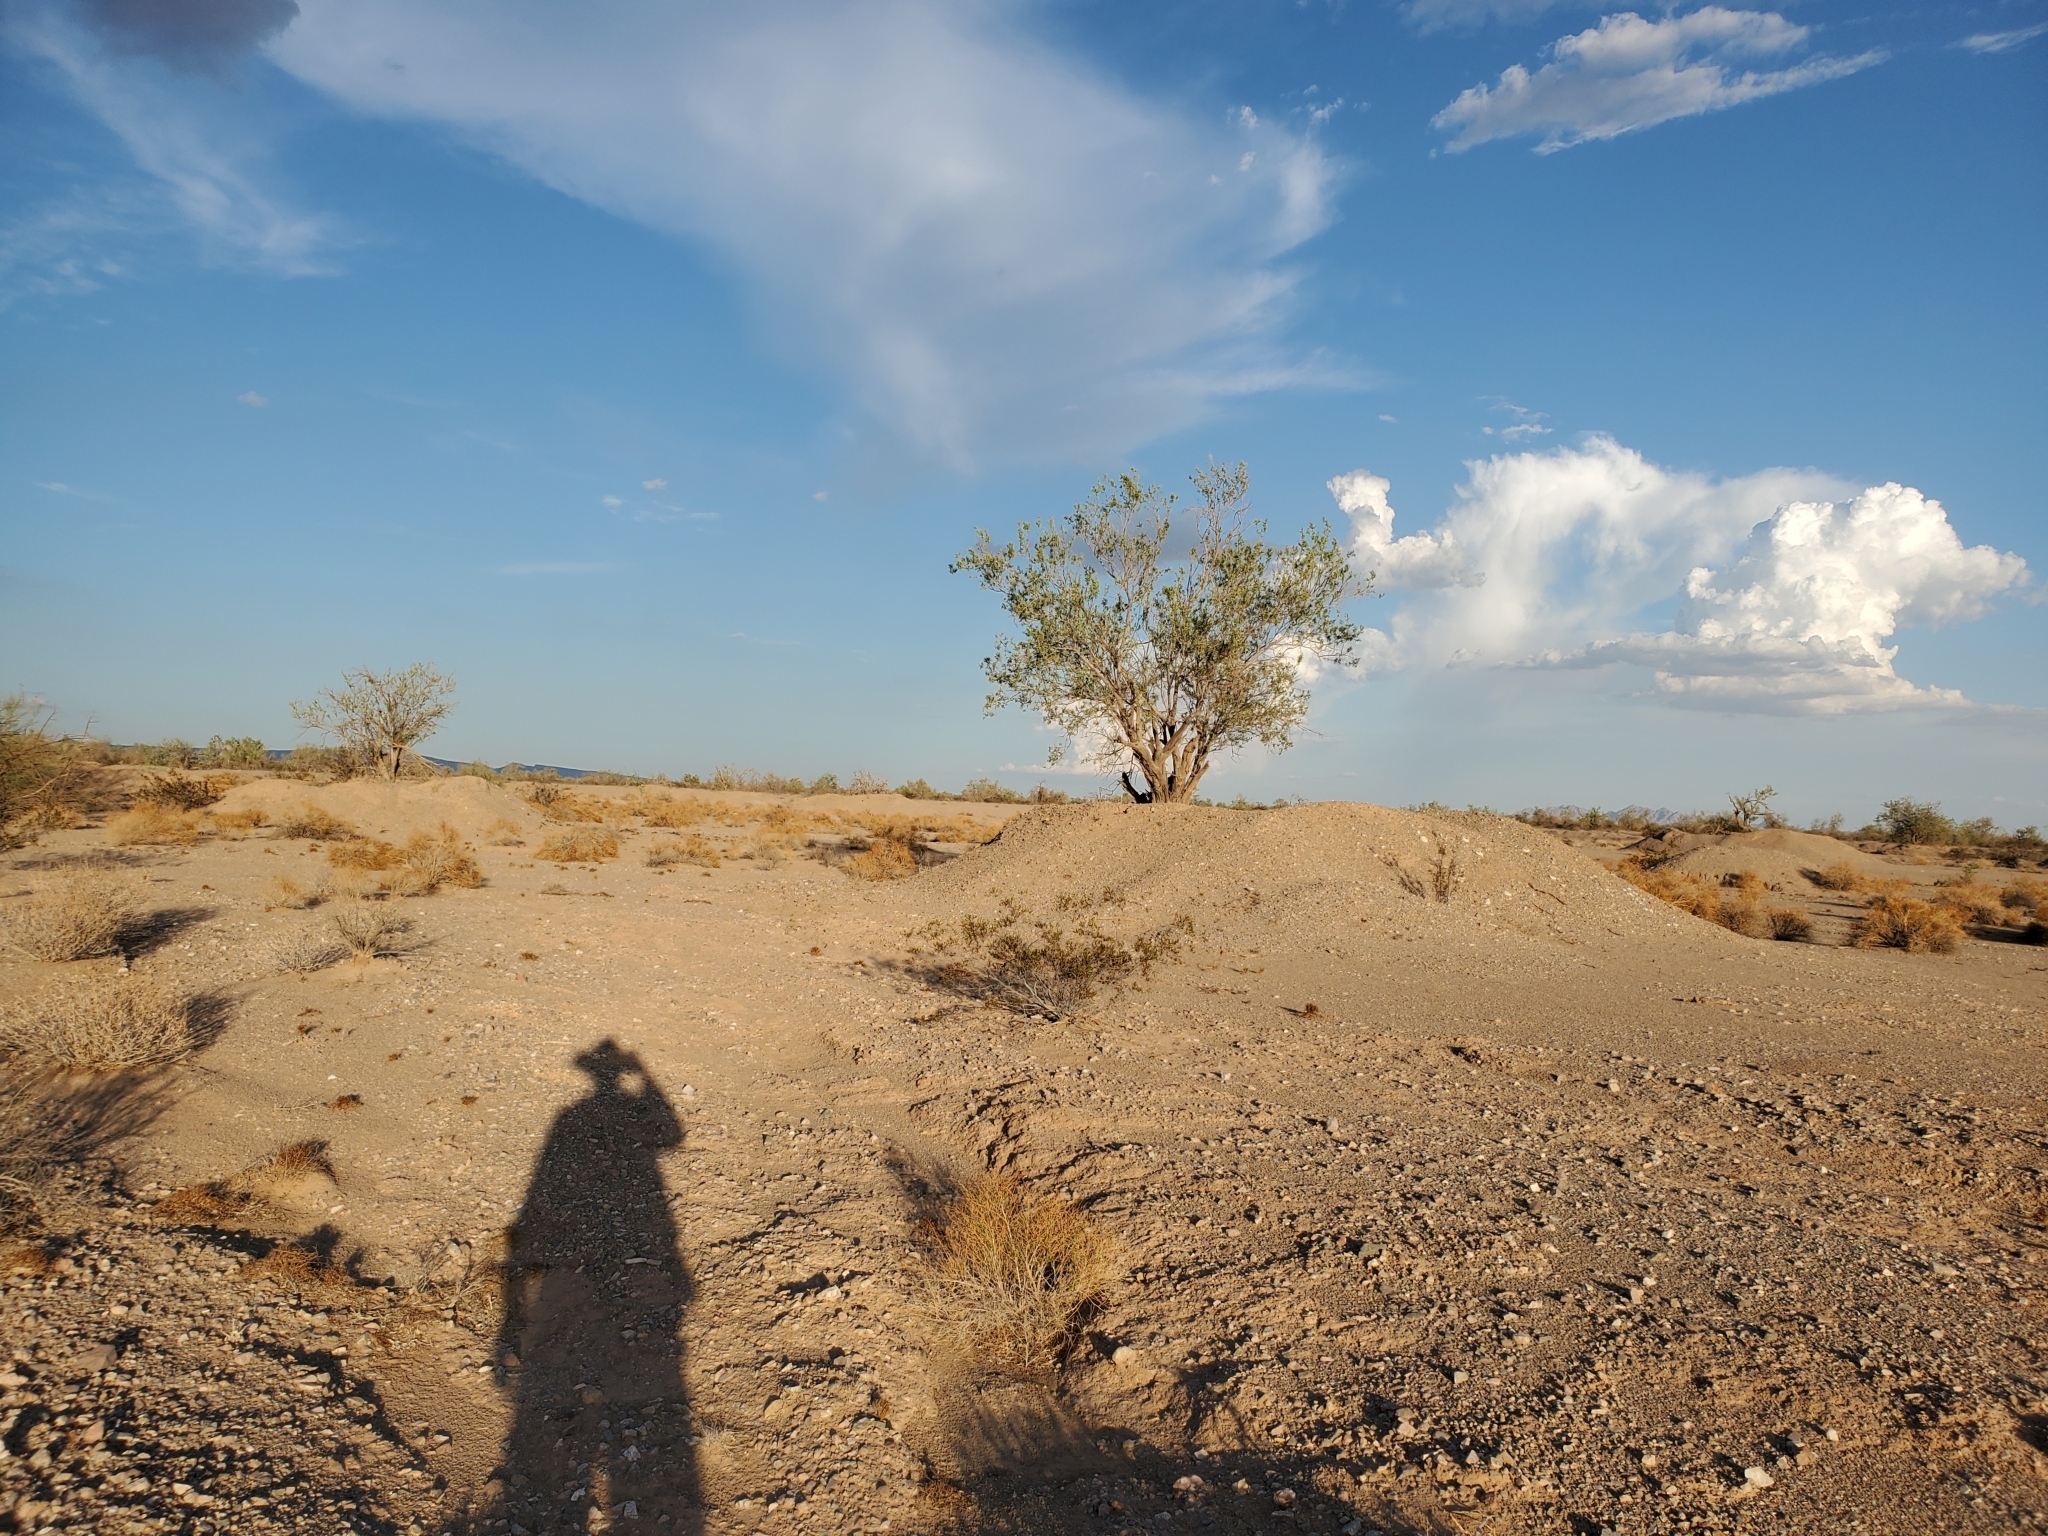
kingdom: Plantae
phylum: Tracheophyta
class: Magnoliopsida
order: Fabales
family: Fabaceae
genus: Olneya
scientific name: Olneya tesota
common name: Desert ironwood
